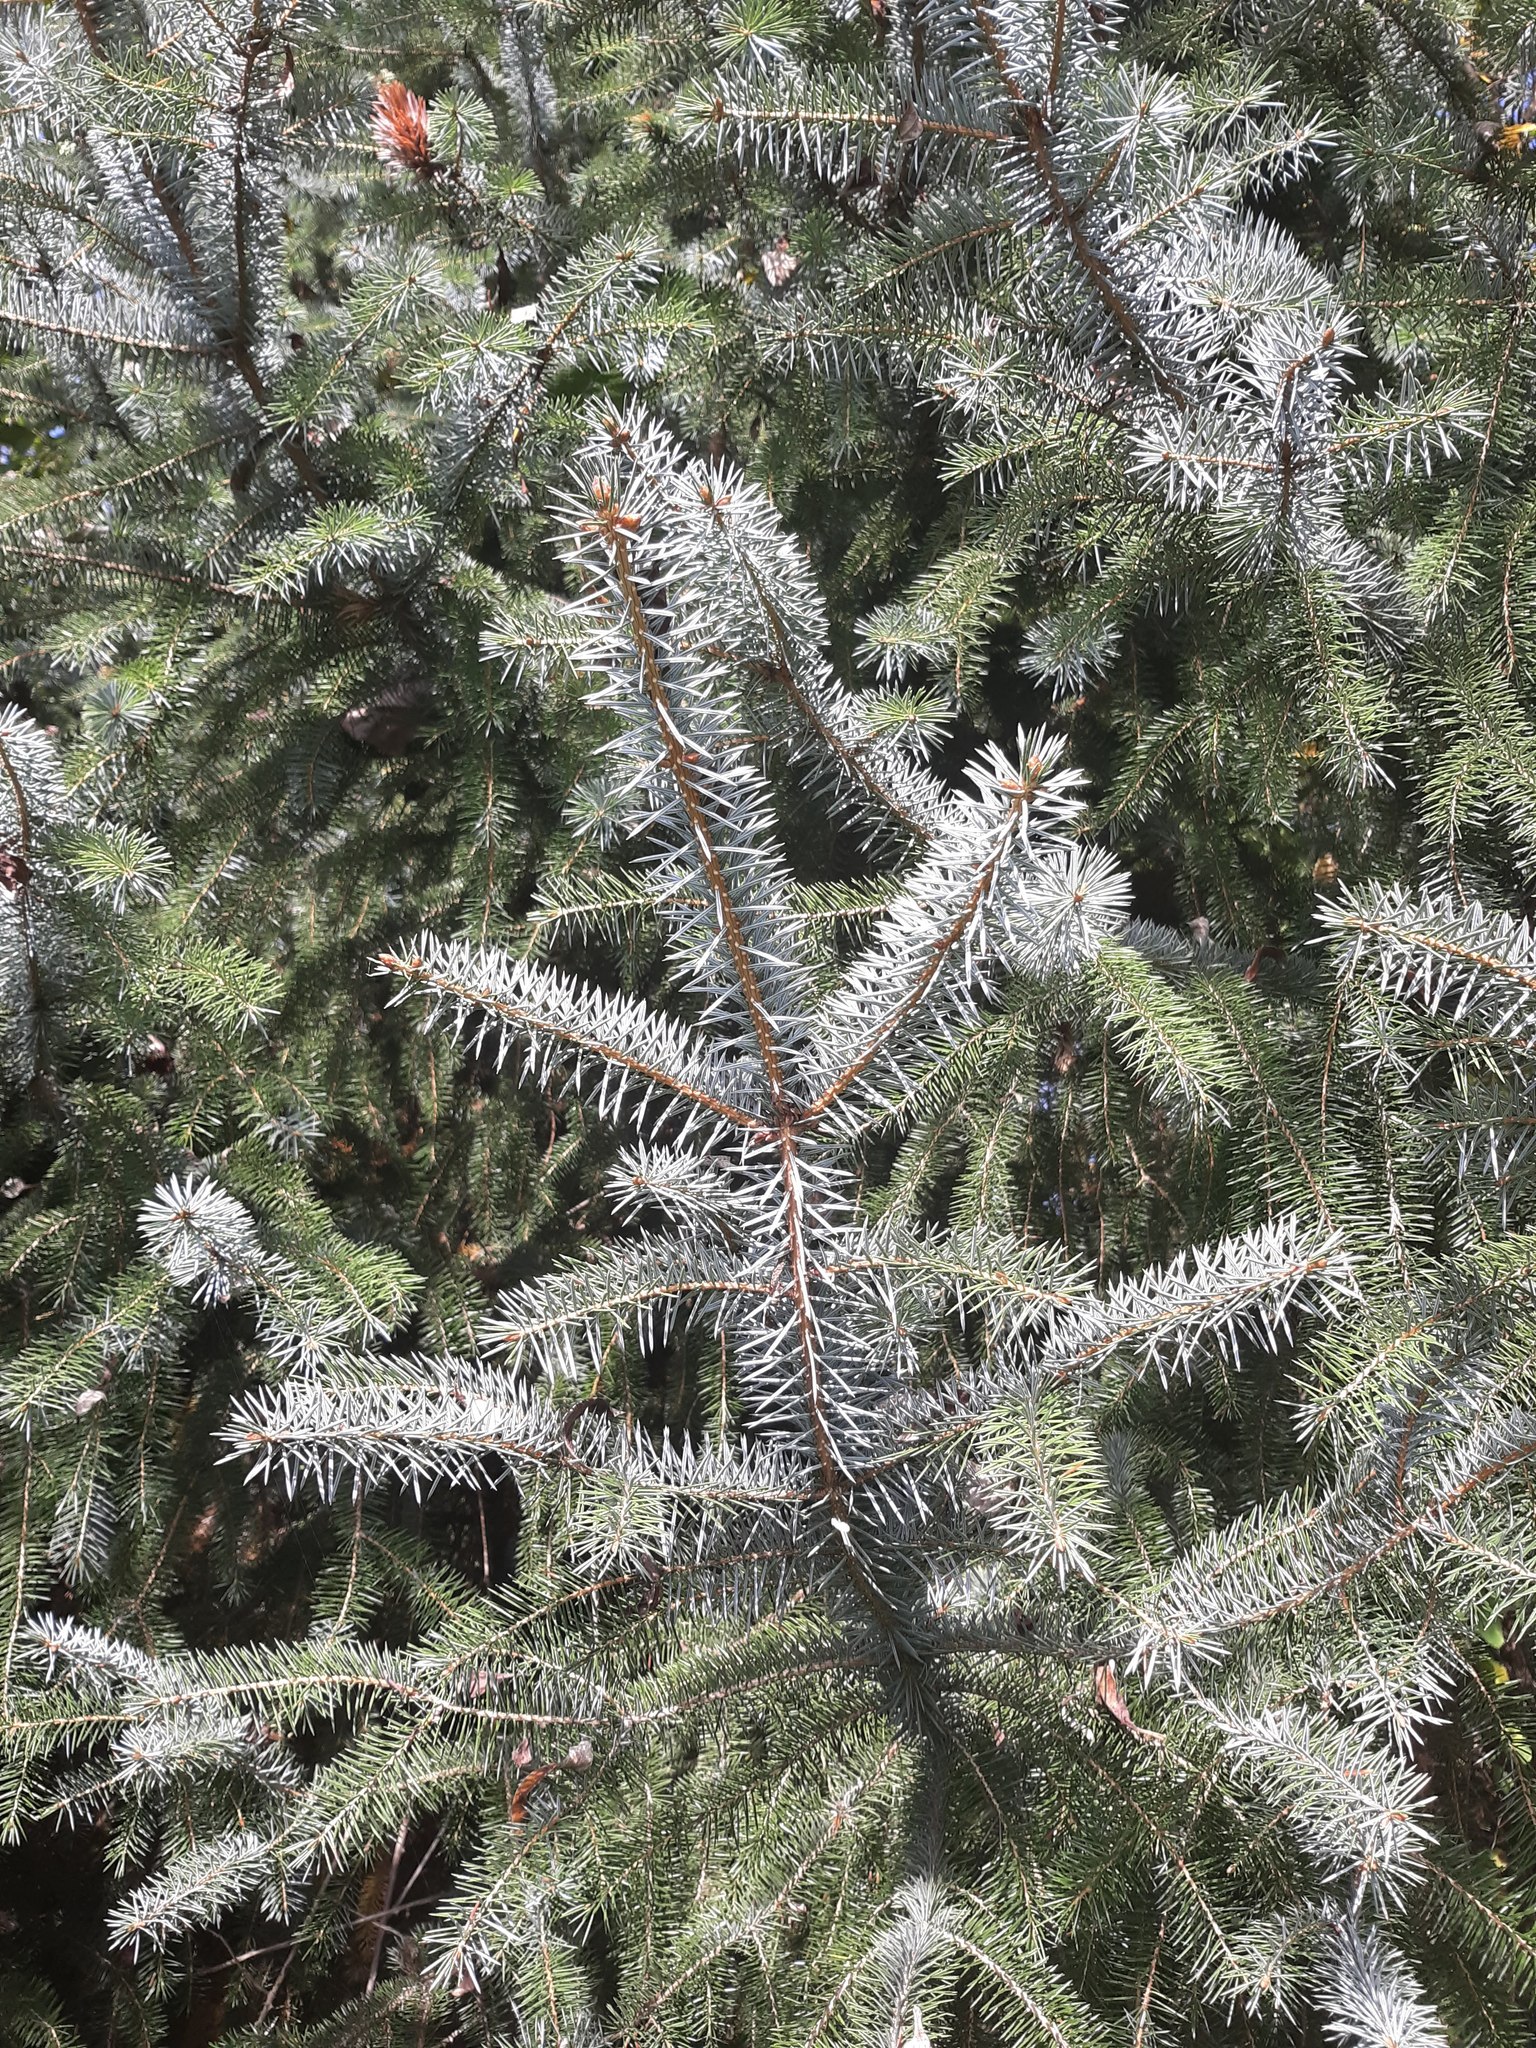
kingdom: Plantae
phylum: Tracheophyta
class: Pinopsida
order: Pinales
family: Pinaceae
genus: Picea
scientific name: Picea sitchensis
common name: Sitka spruce
